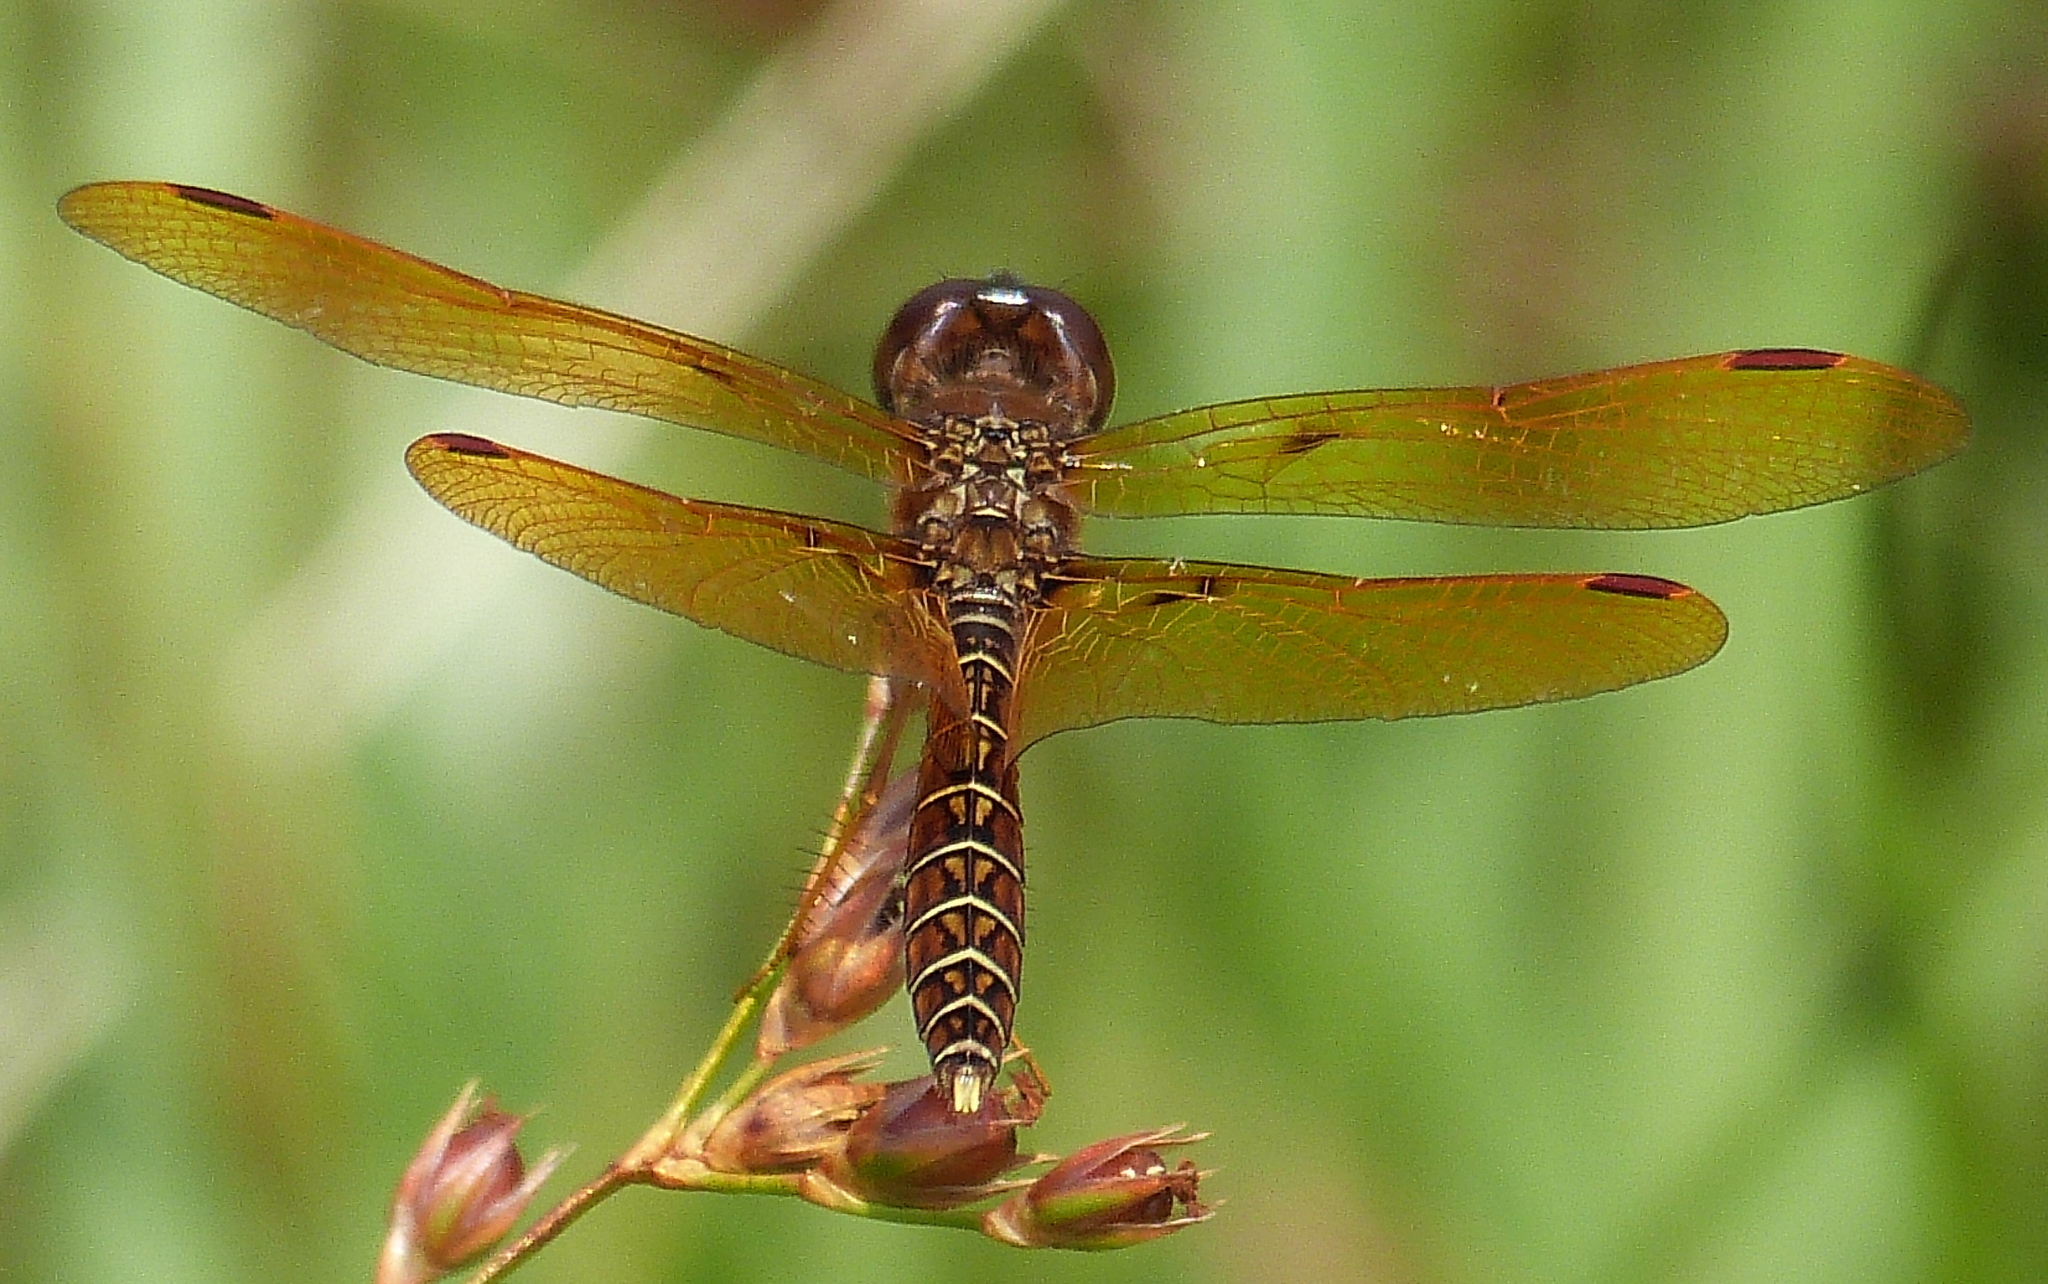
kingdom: Animalia
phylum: Arthropoda
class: Insecta
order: Odonata
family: Libellulidae
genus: Perithemis
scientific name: Perithemis tenera
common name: Eastern amberwing
